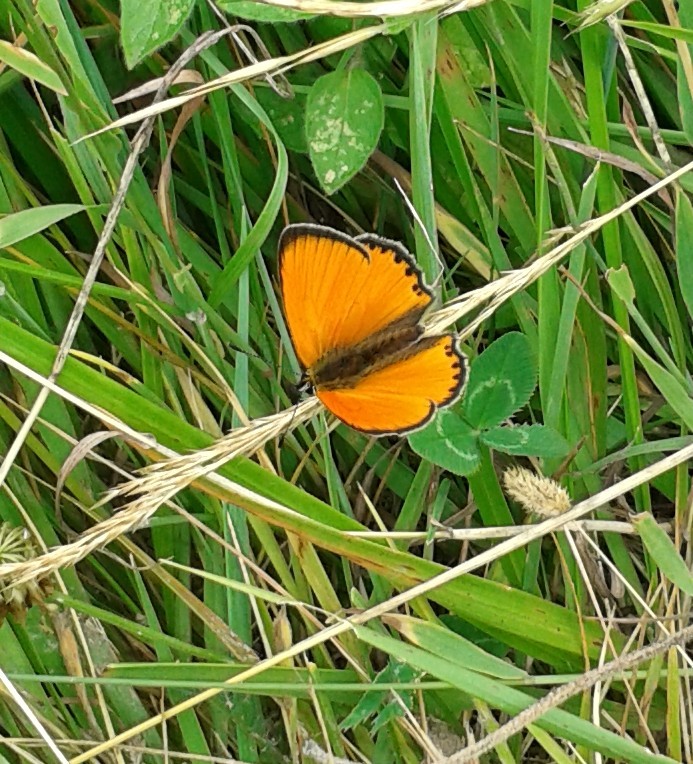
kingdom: Animalia
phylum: Arthropoda
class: Insecta
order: Lepidoptera
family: Lycaenidae
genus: Lycaena
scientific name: Lycaena virgaureae
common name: Scarce copper
